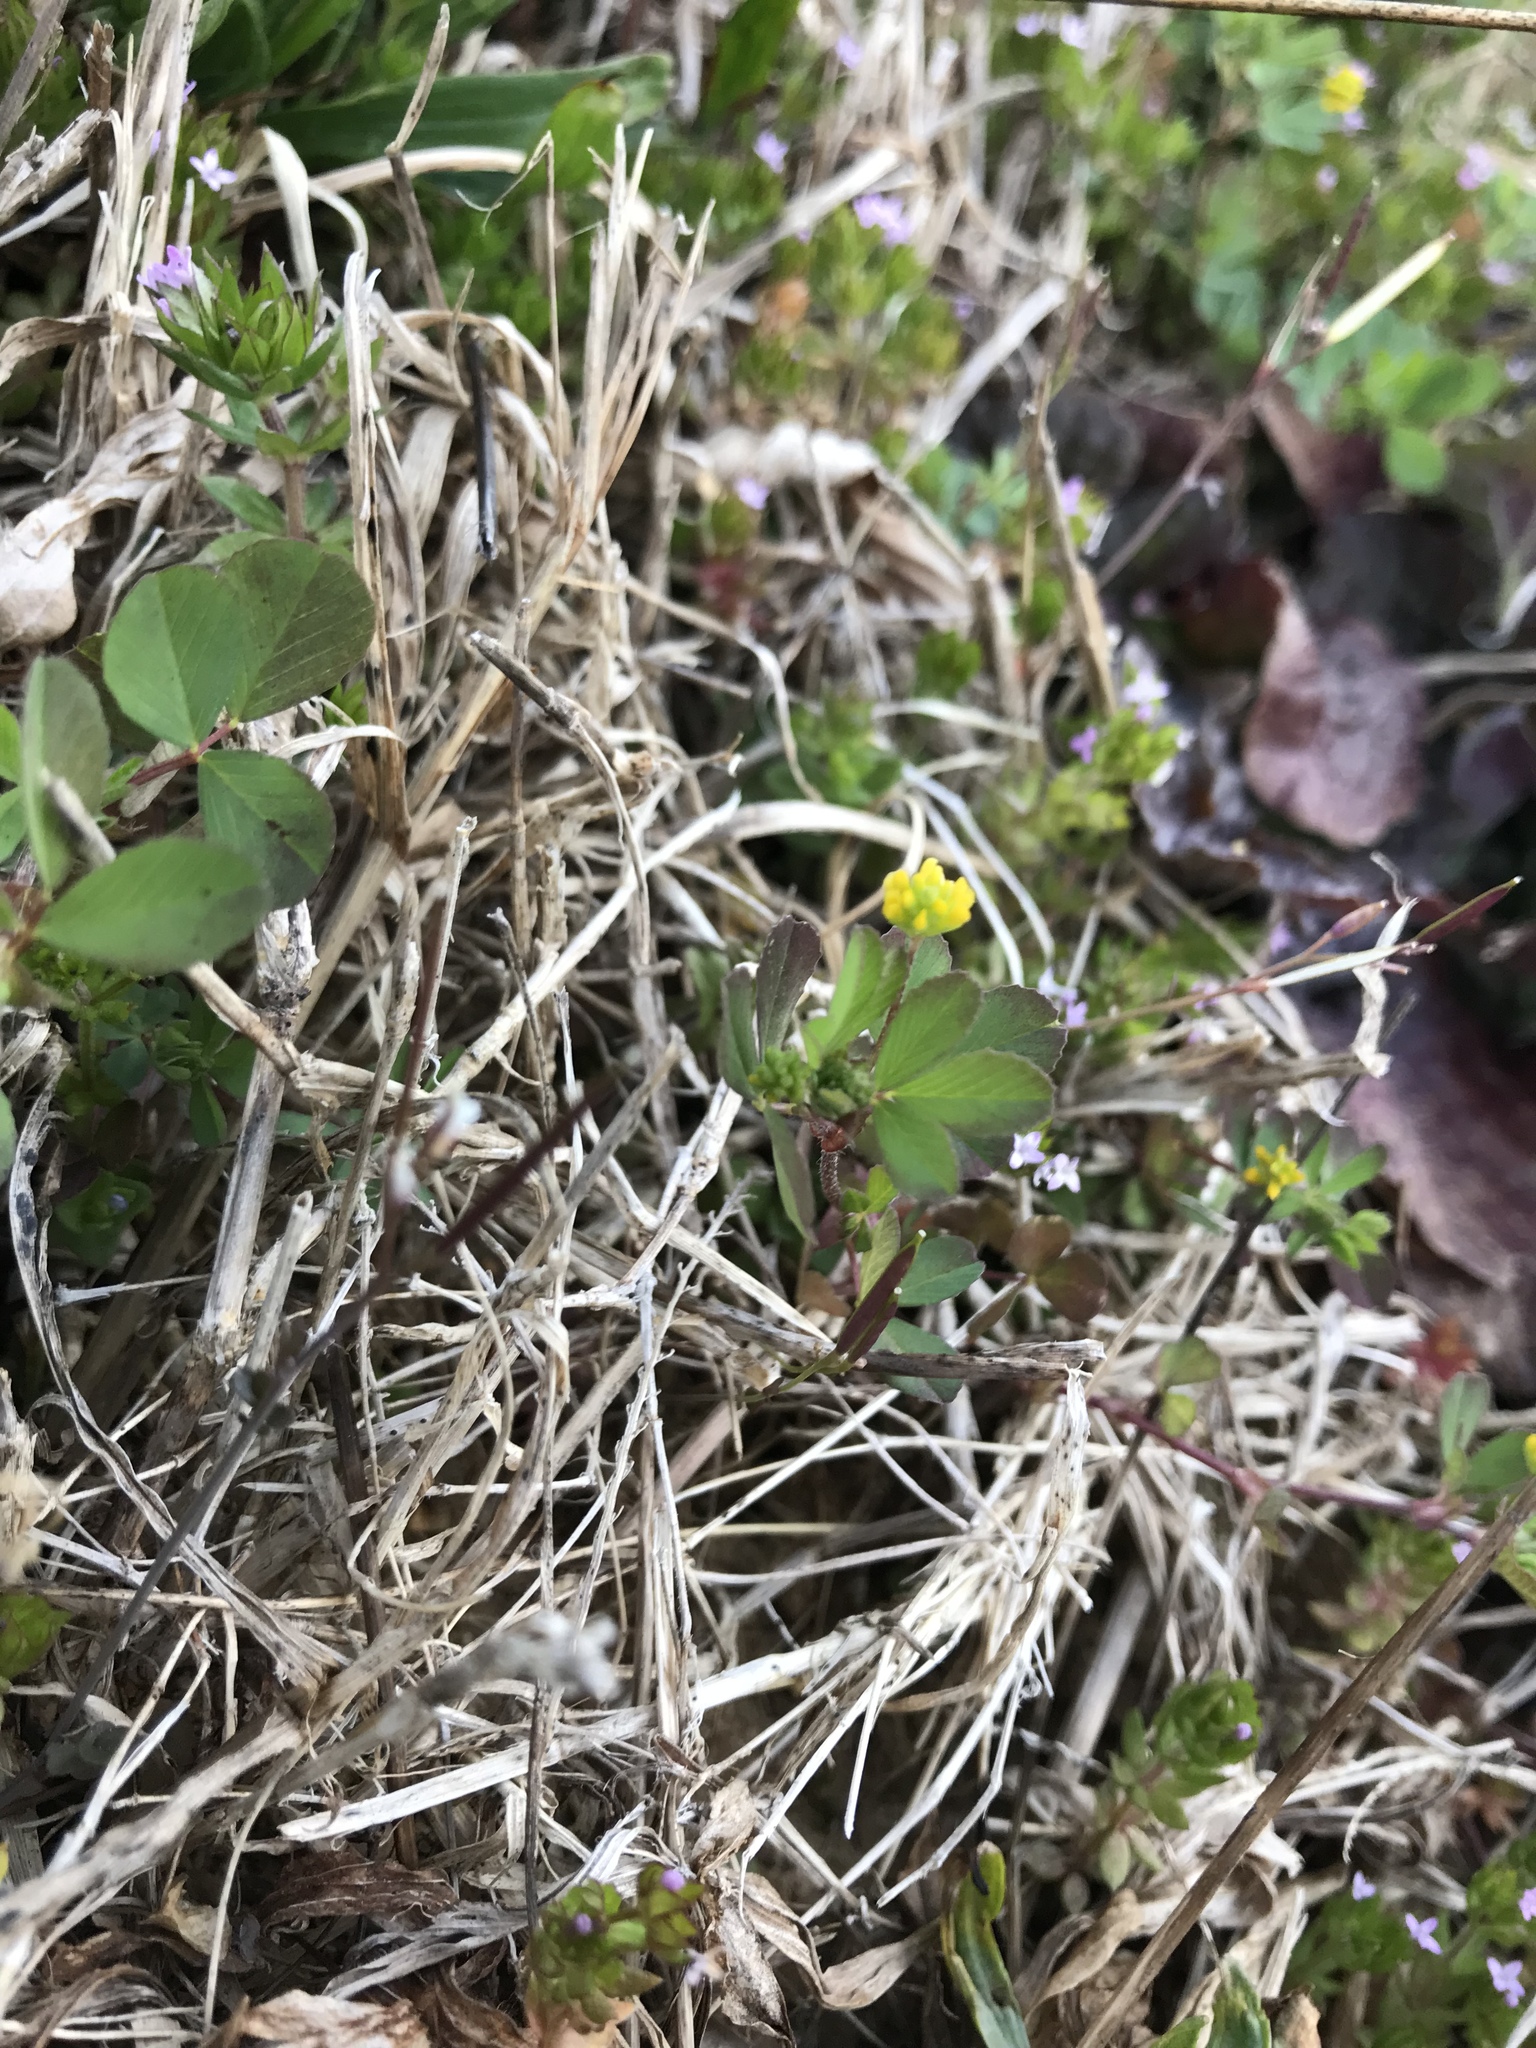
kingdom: Plantae
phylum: Tracheophyta
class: Magnoliopsida
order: Fabales
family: Fabaceae
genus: Trifolium
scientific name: Trifolium dubium
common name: Suckling clover
